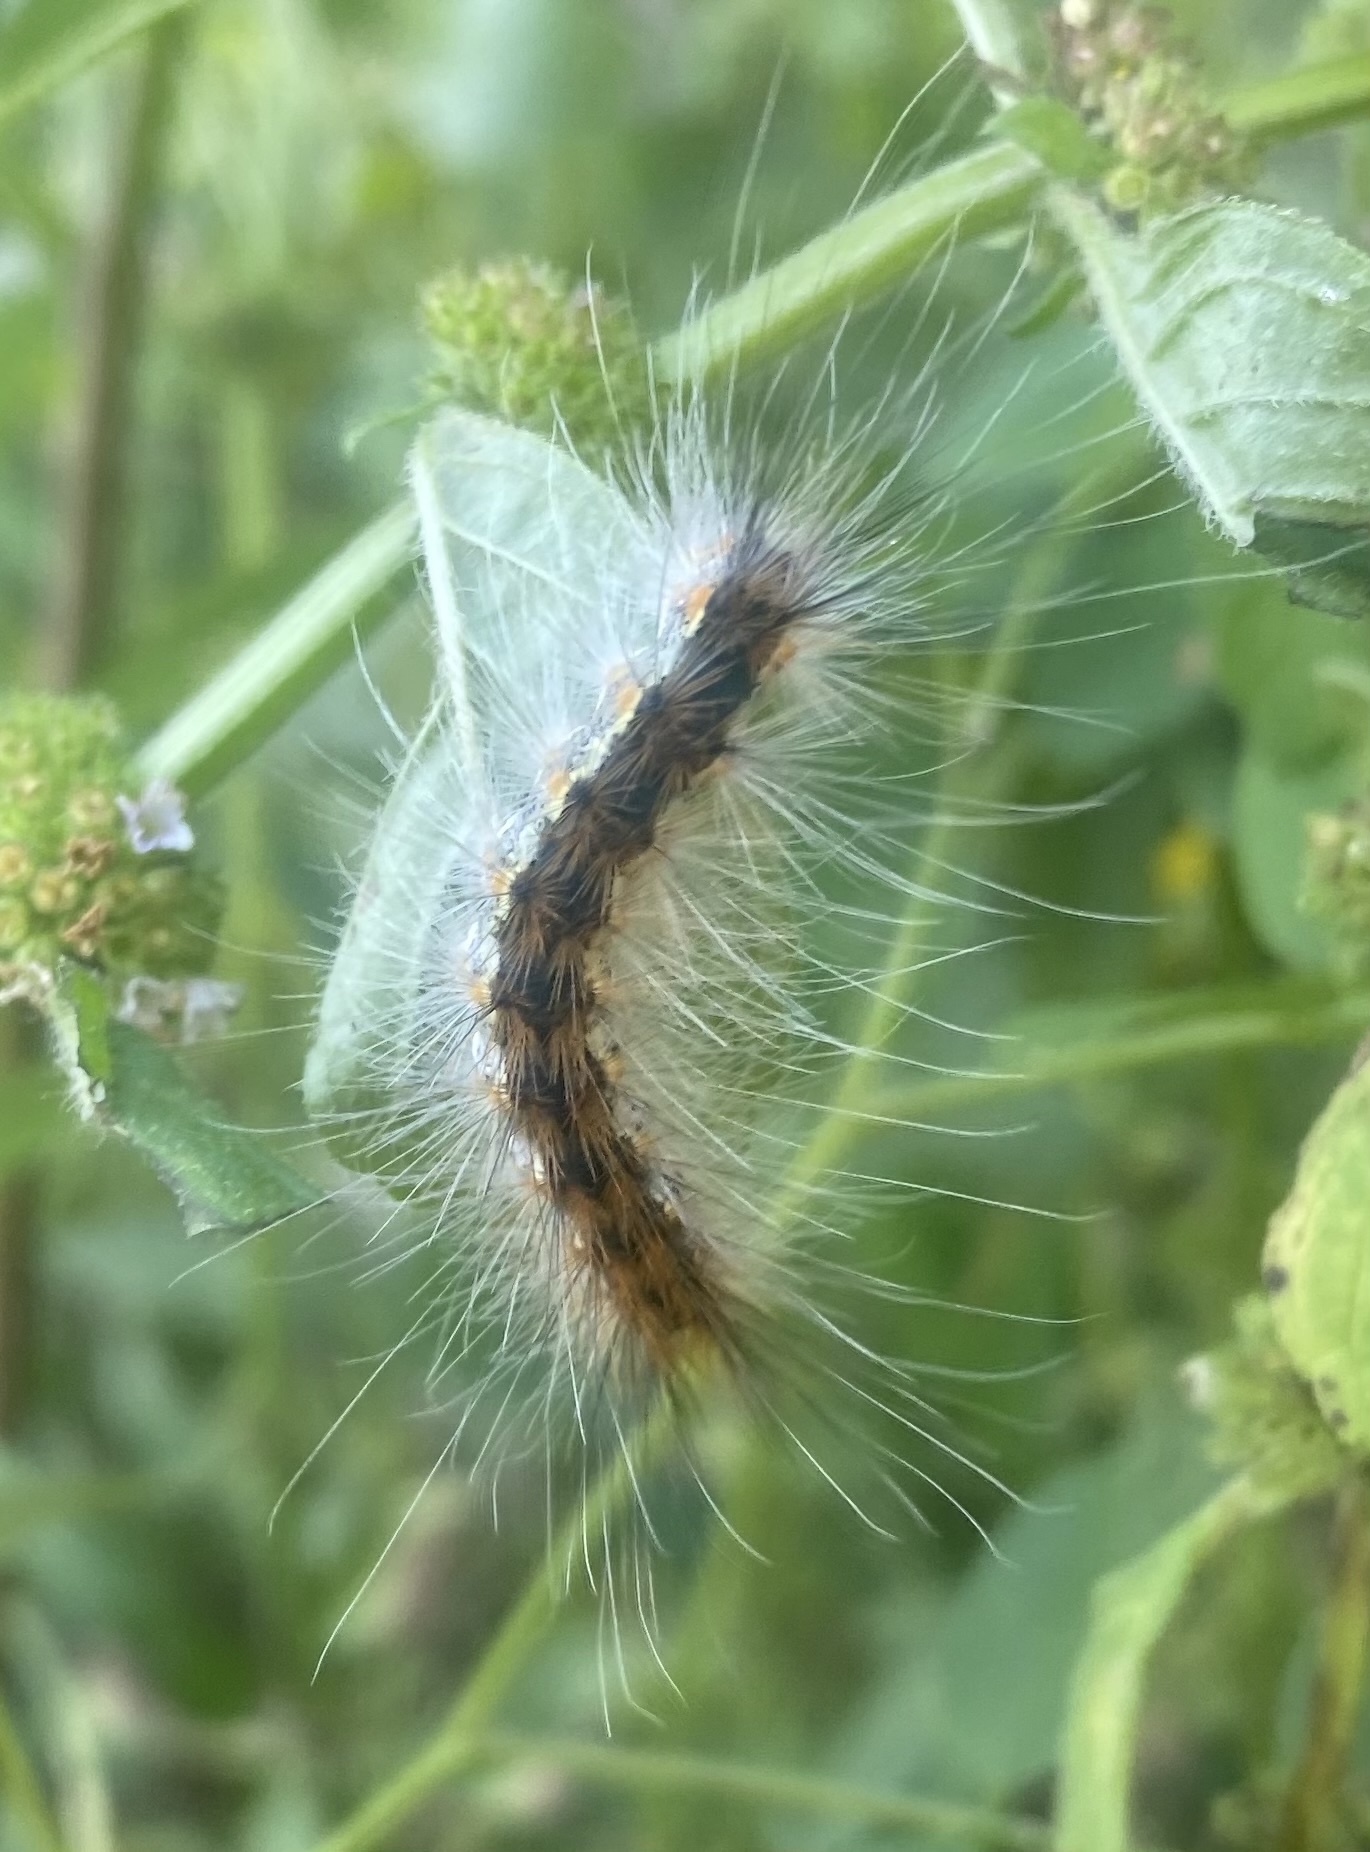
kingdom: Animalia
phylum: Arthropoda
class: Insecta
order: Lepidoptera
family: Erebidae
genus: Hyphantria
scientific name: Hyphantria cunea
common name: American white moth
